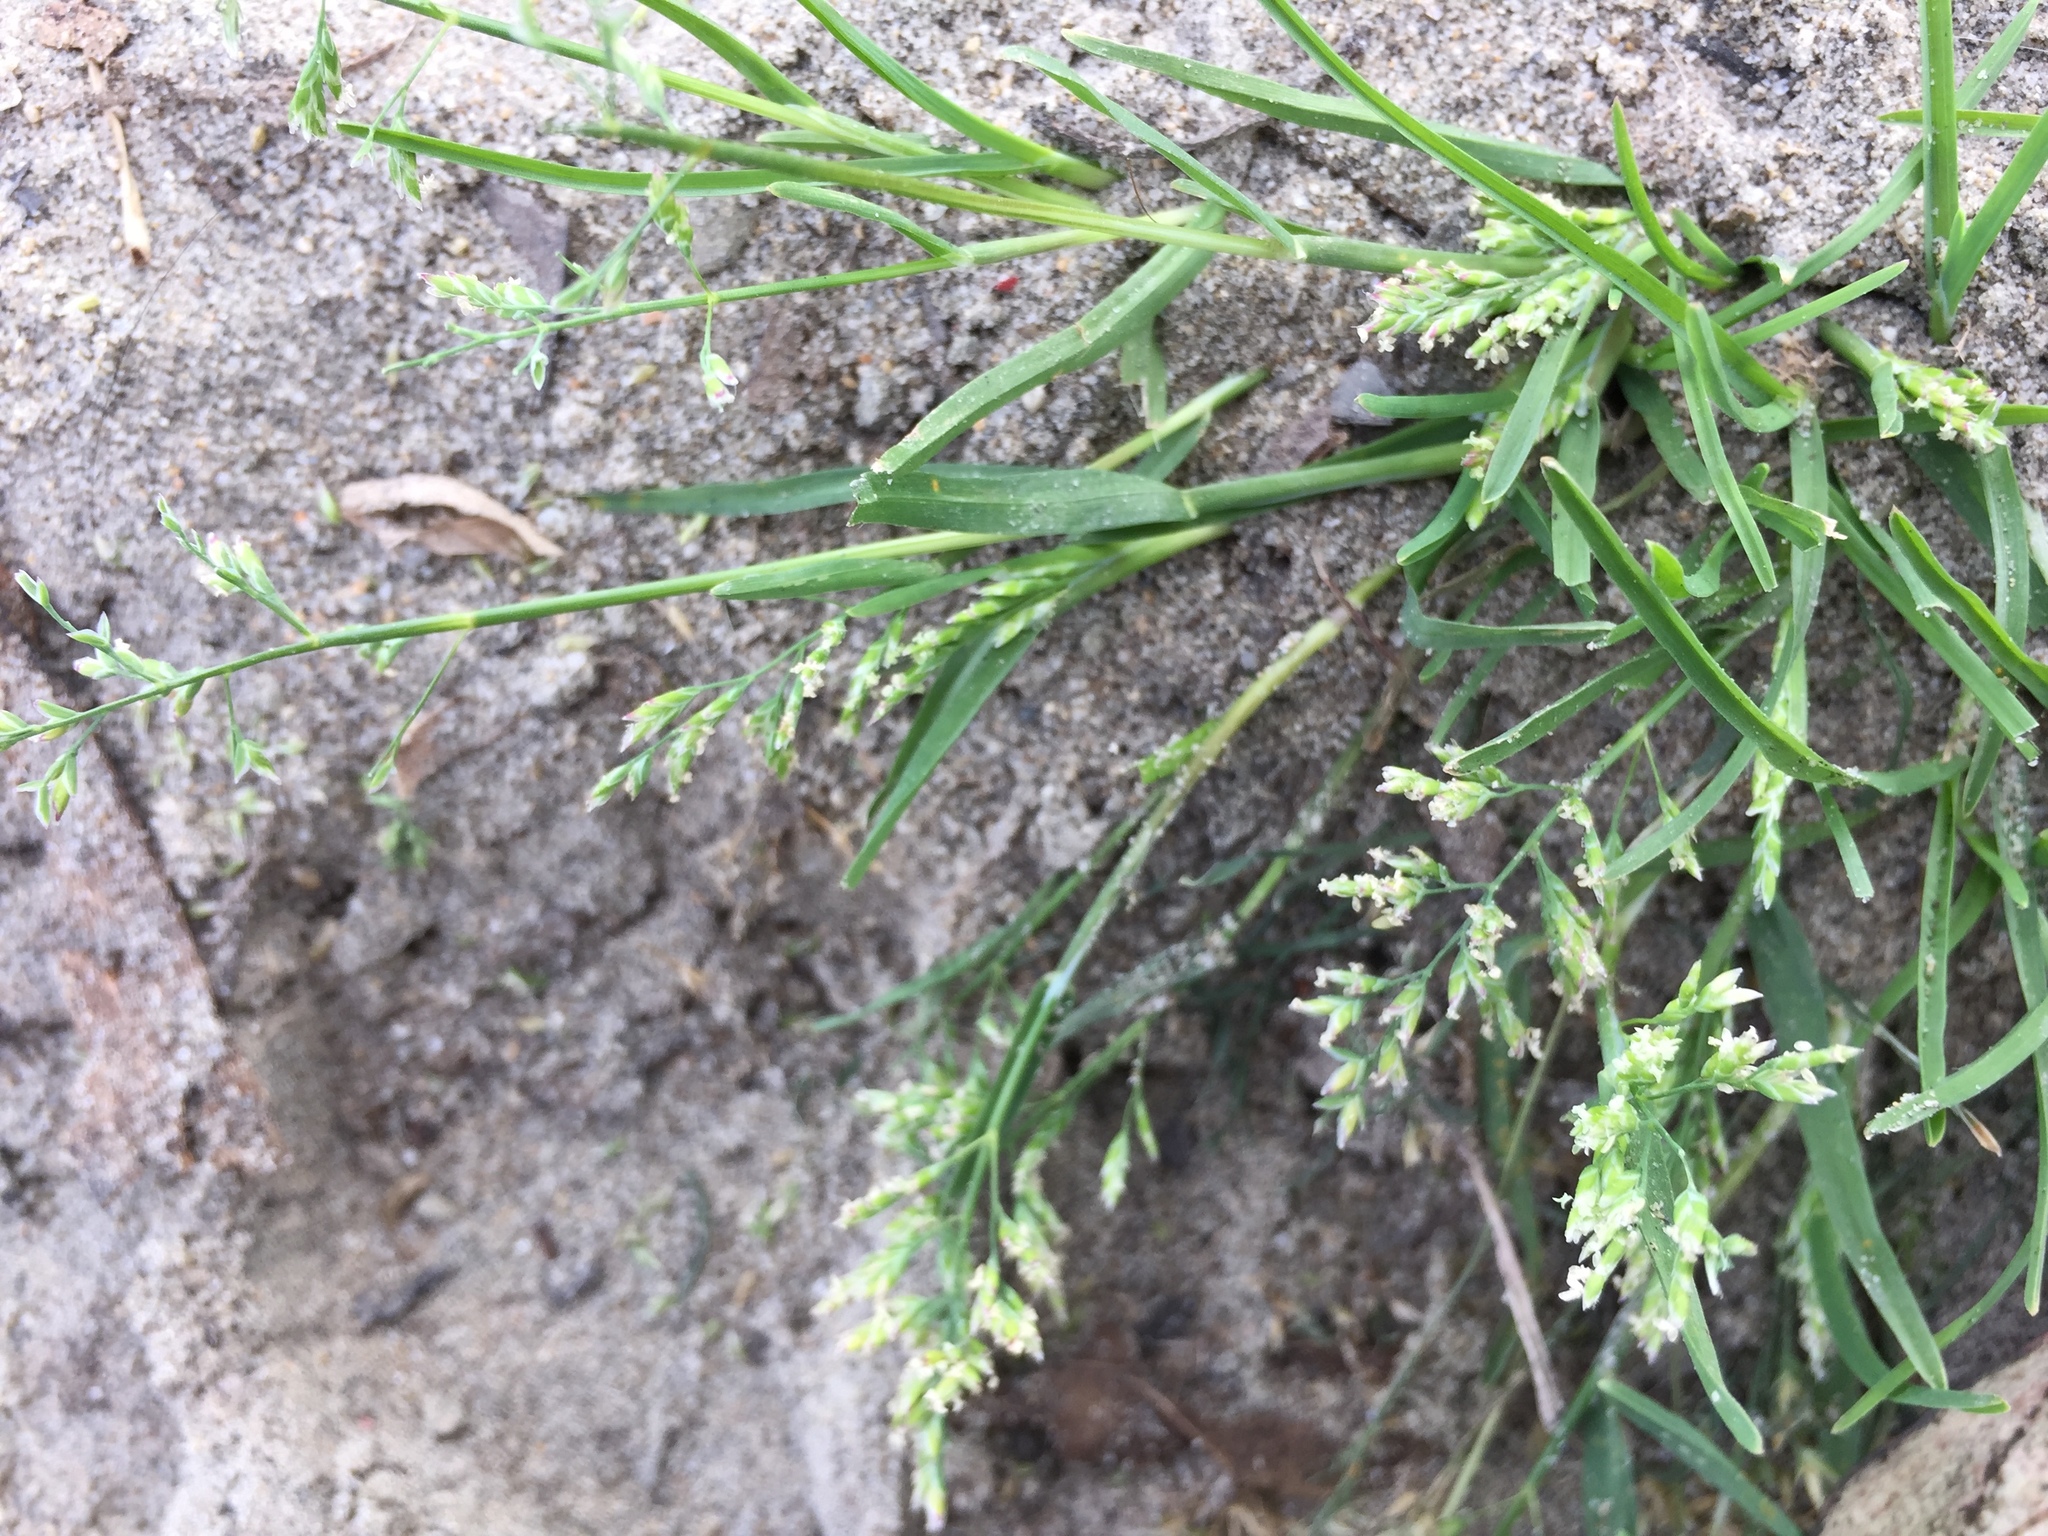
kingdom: Plantae
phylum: Tracheophyta
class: Liliopsida
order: Poales
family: Poaceae
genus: Poa
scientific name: Poa annua
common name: Annual bluegrass
